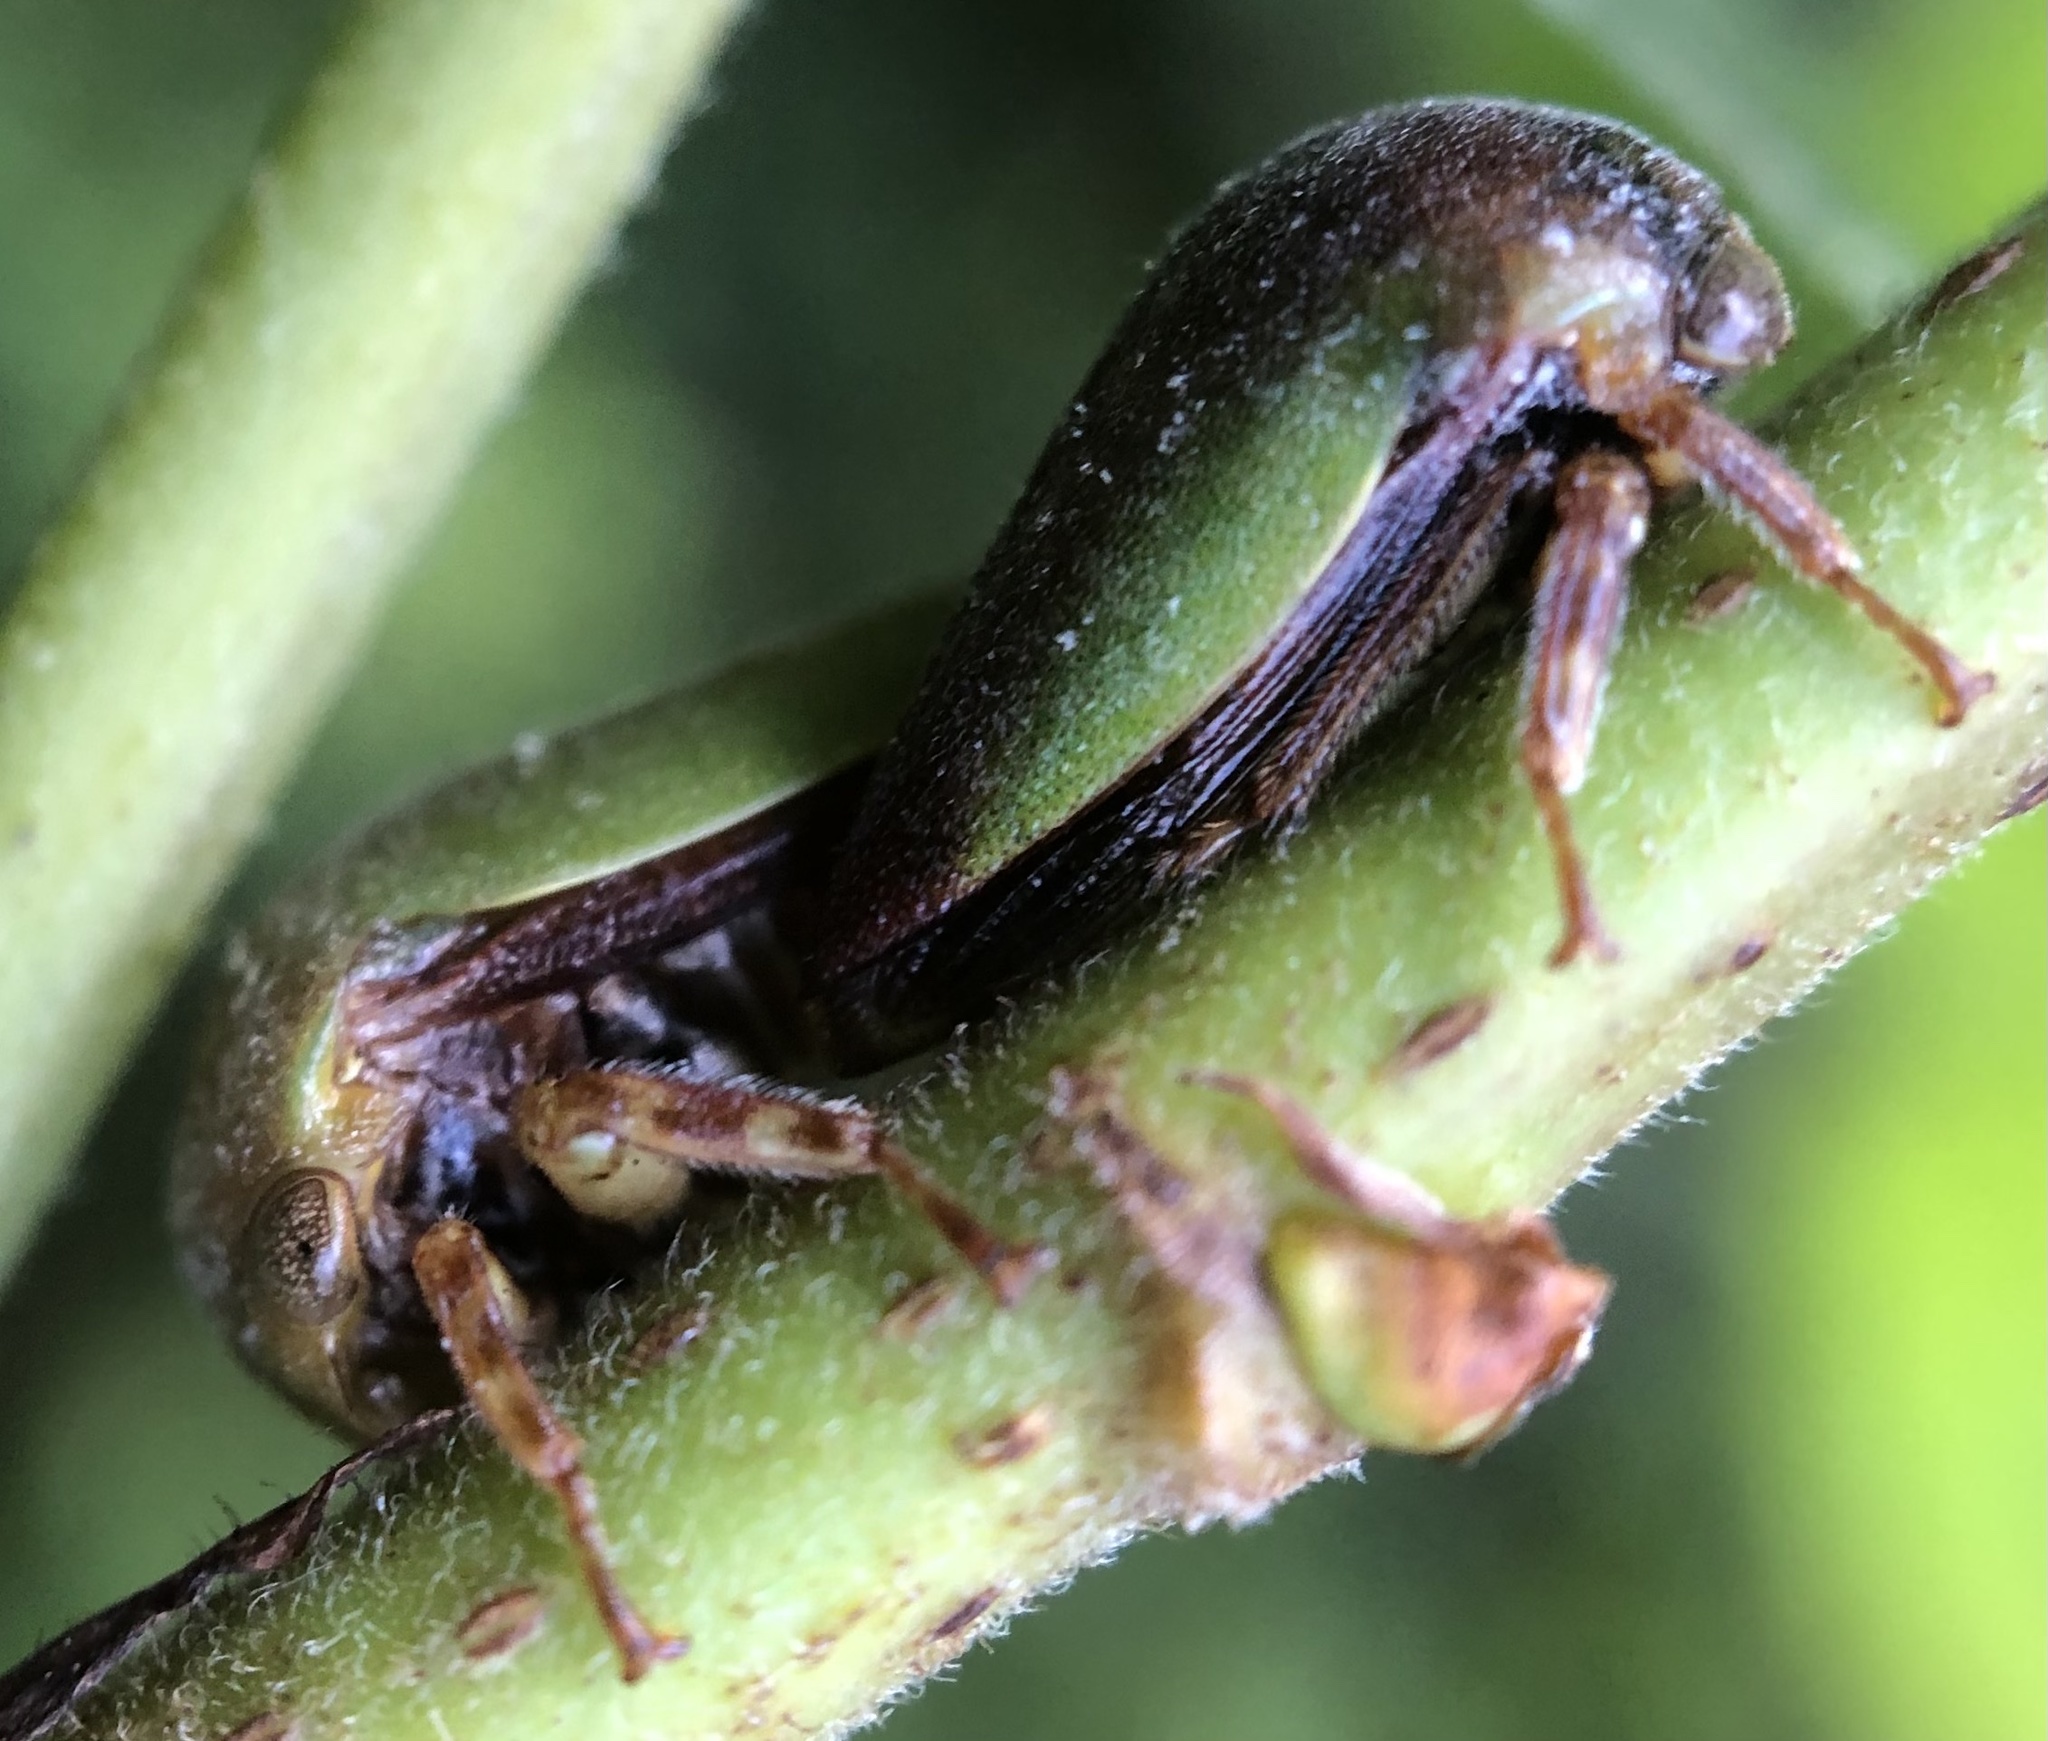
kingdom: Animalia
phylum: Arthropoda
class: Insecta
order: Hemiptera
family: Membracidae
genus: Hebetica
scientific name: Hebetica
